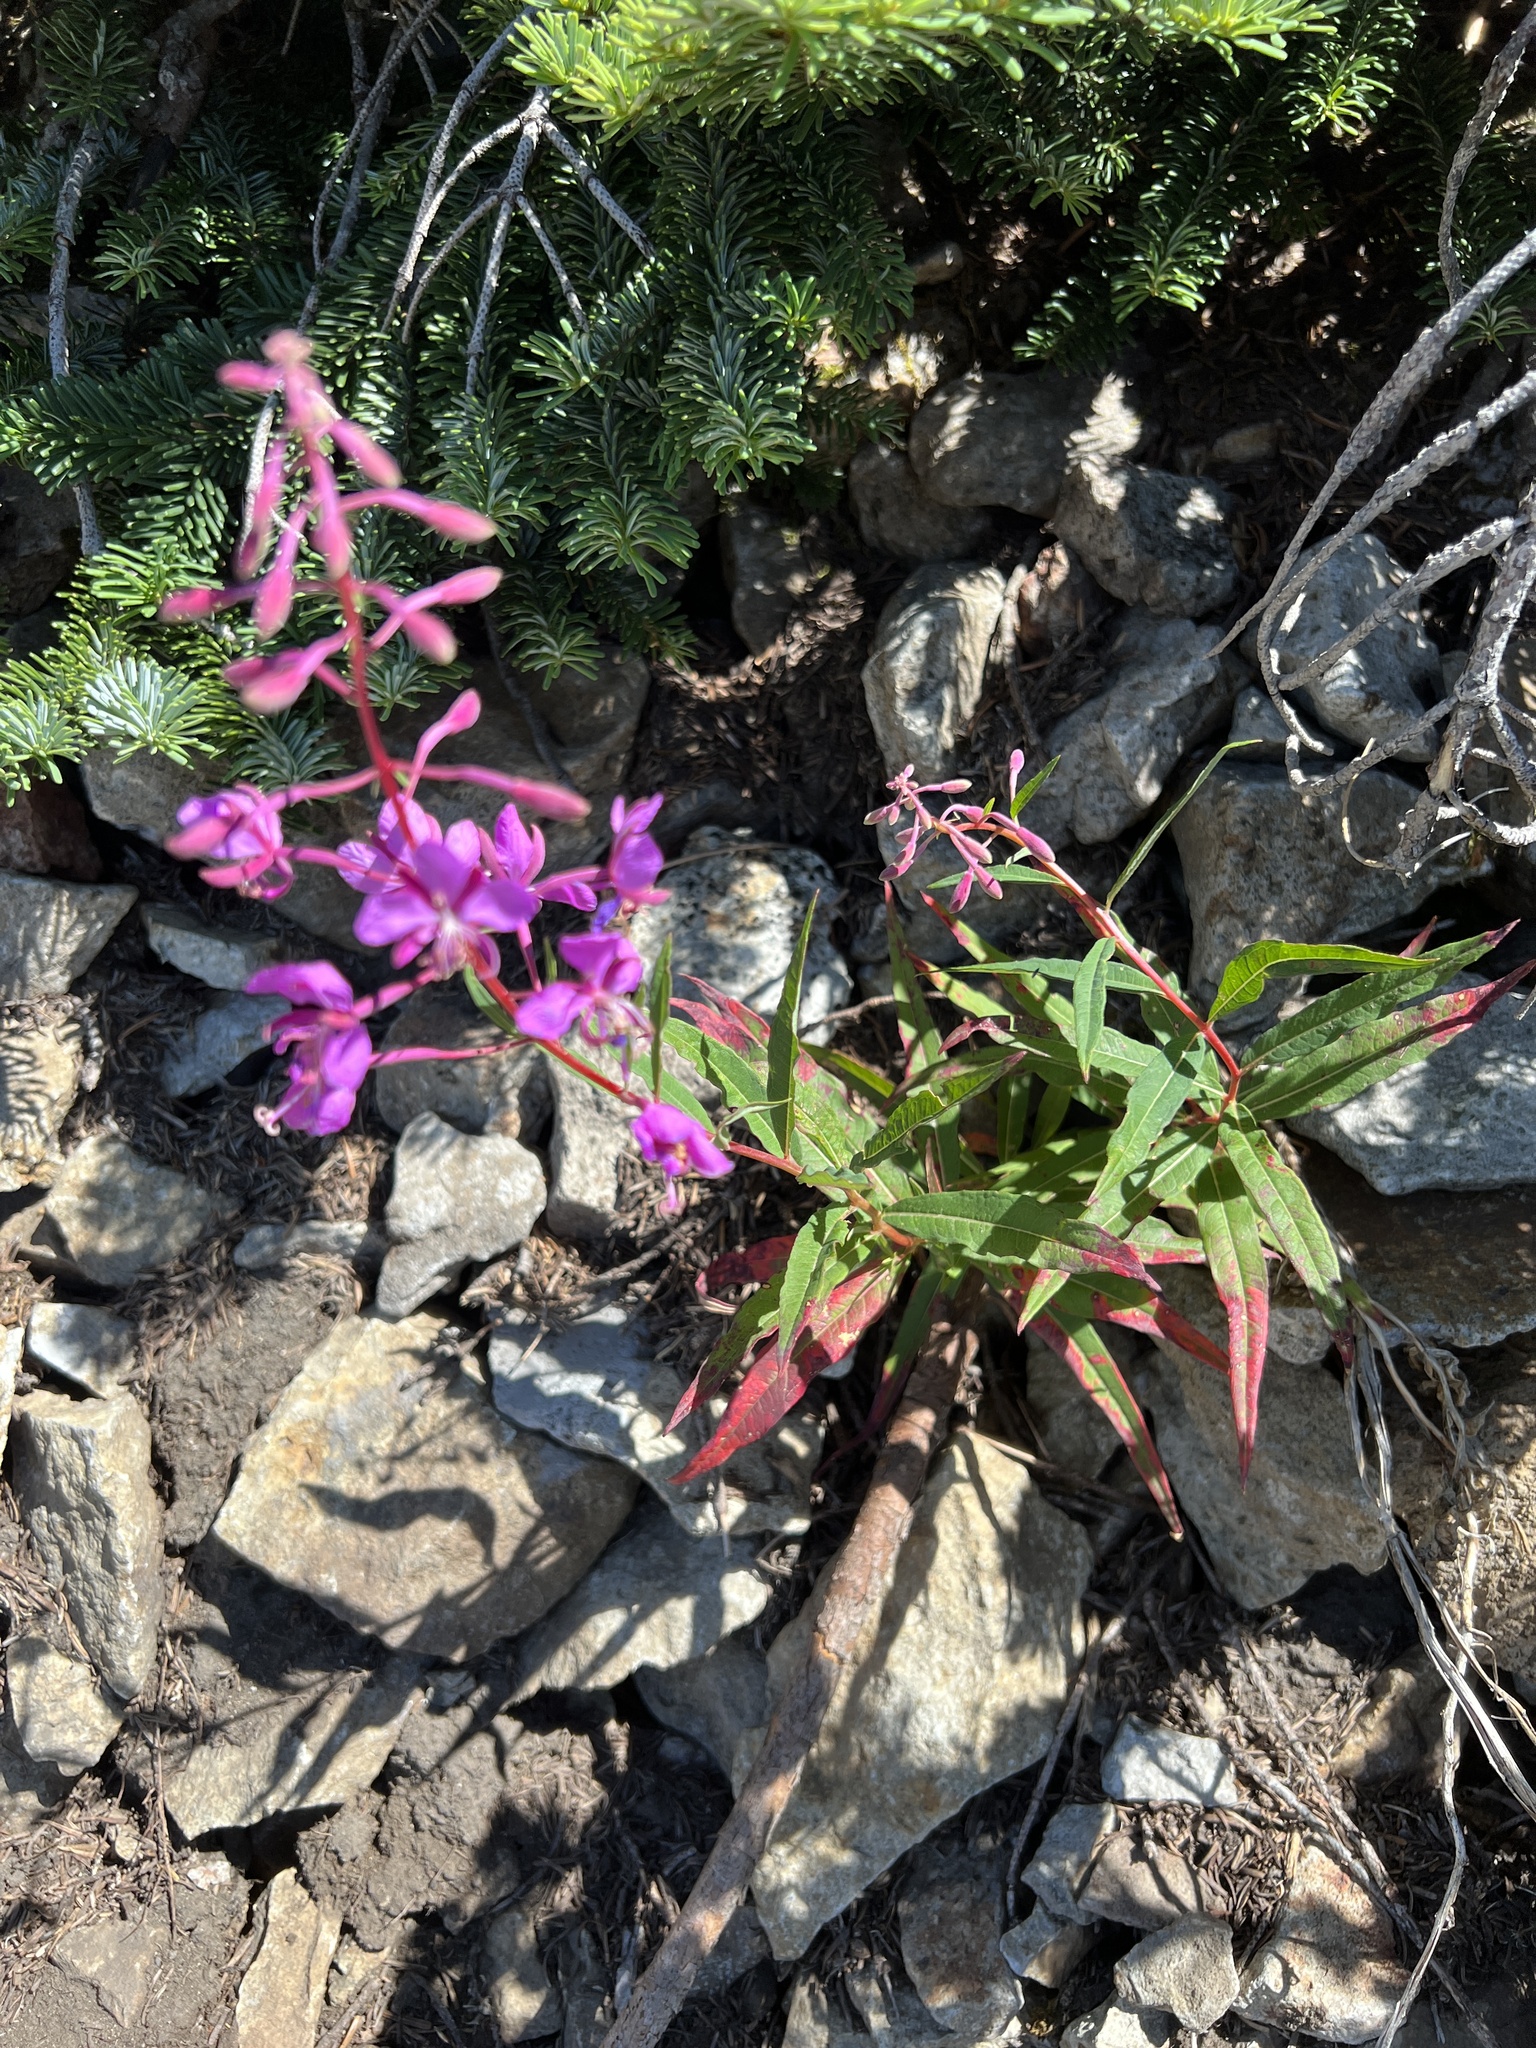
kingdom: Plantae
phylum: Tracheophyta
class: Magnoliopsida
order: Myrtales
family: Onagraceae
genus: Chamaenerion
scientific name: Chamaenerion angustifolium
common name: Fireweed
